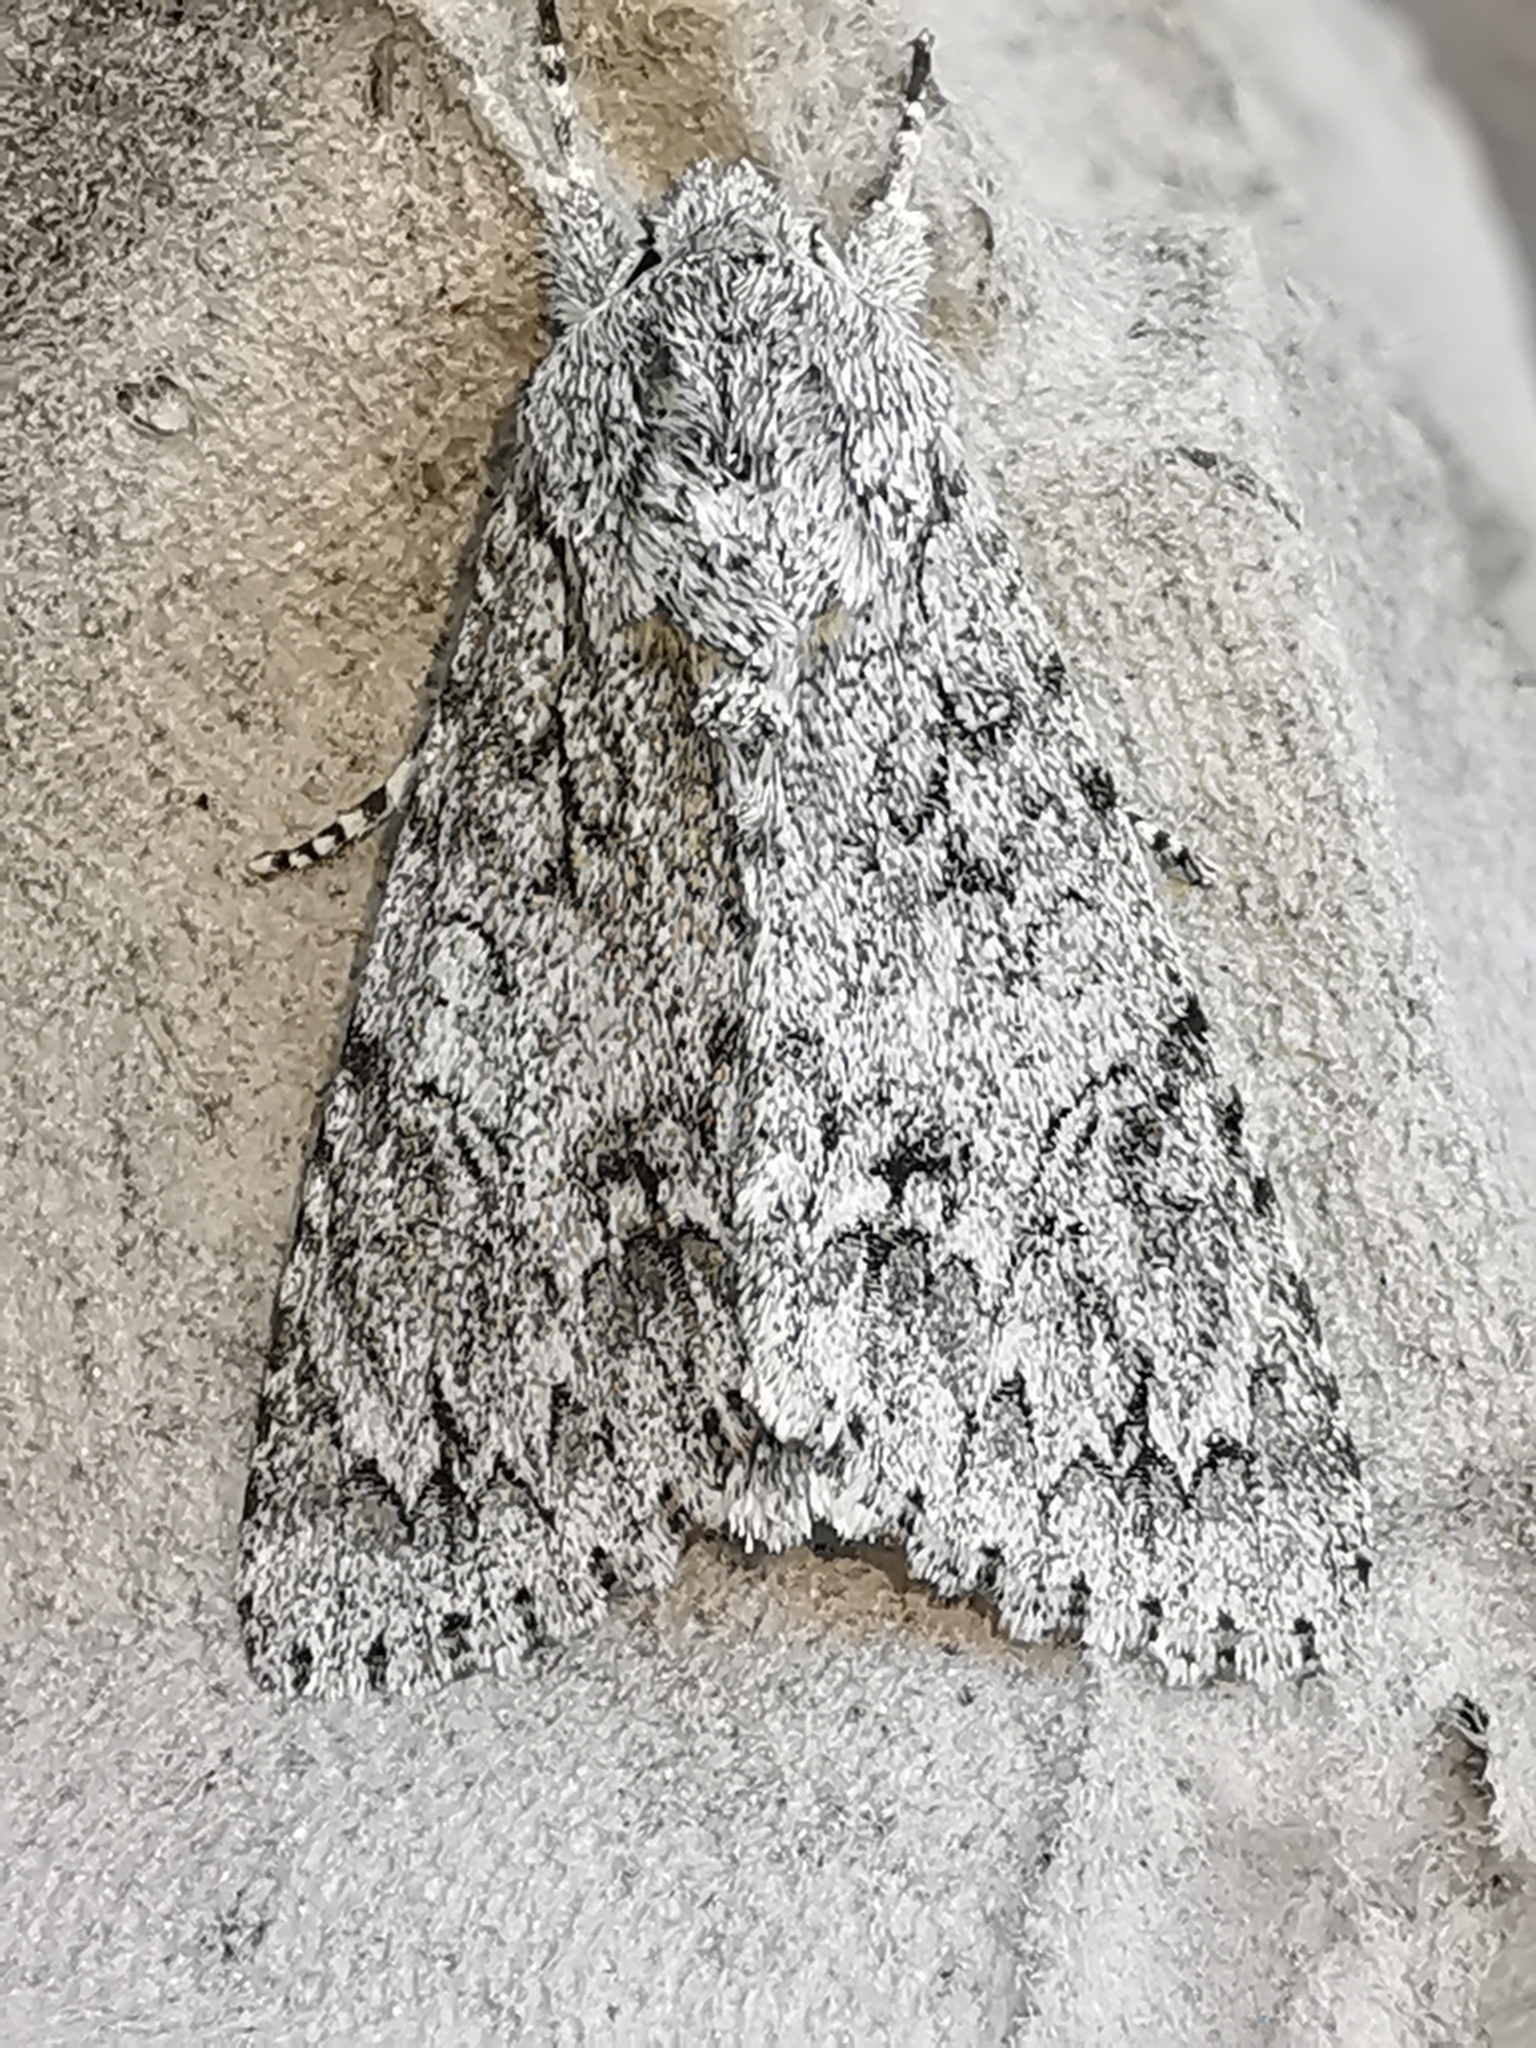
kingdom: Animalia
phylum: Arthropoda
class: Insecta
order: Lepidoptera
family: Noctuidae
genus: Acronicta
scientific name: Acronicta aceris
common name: Sycamore
